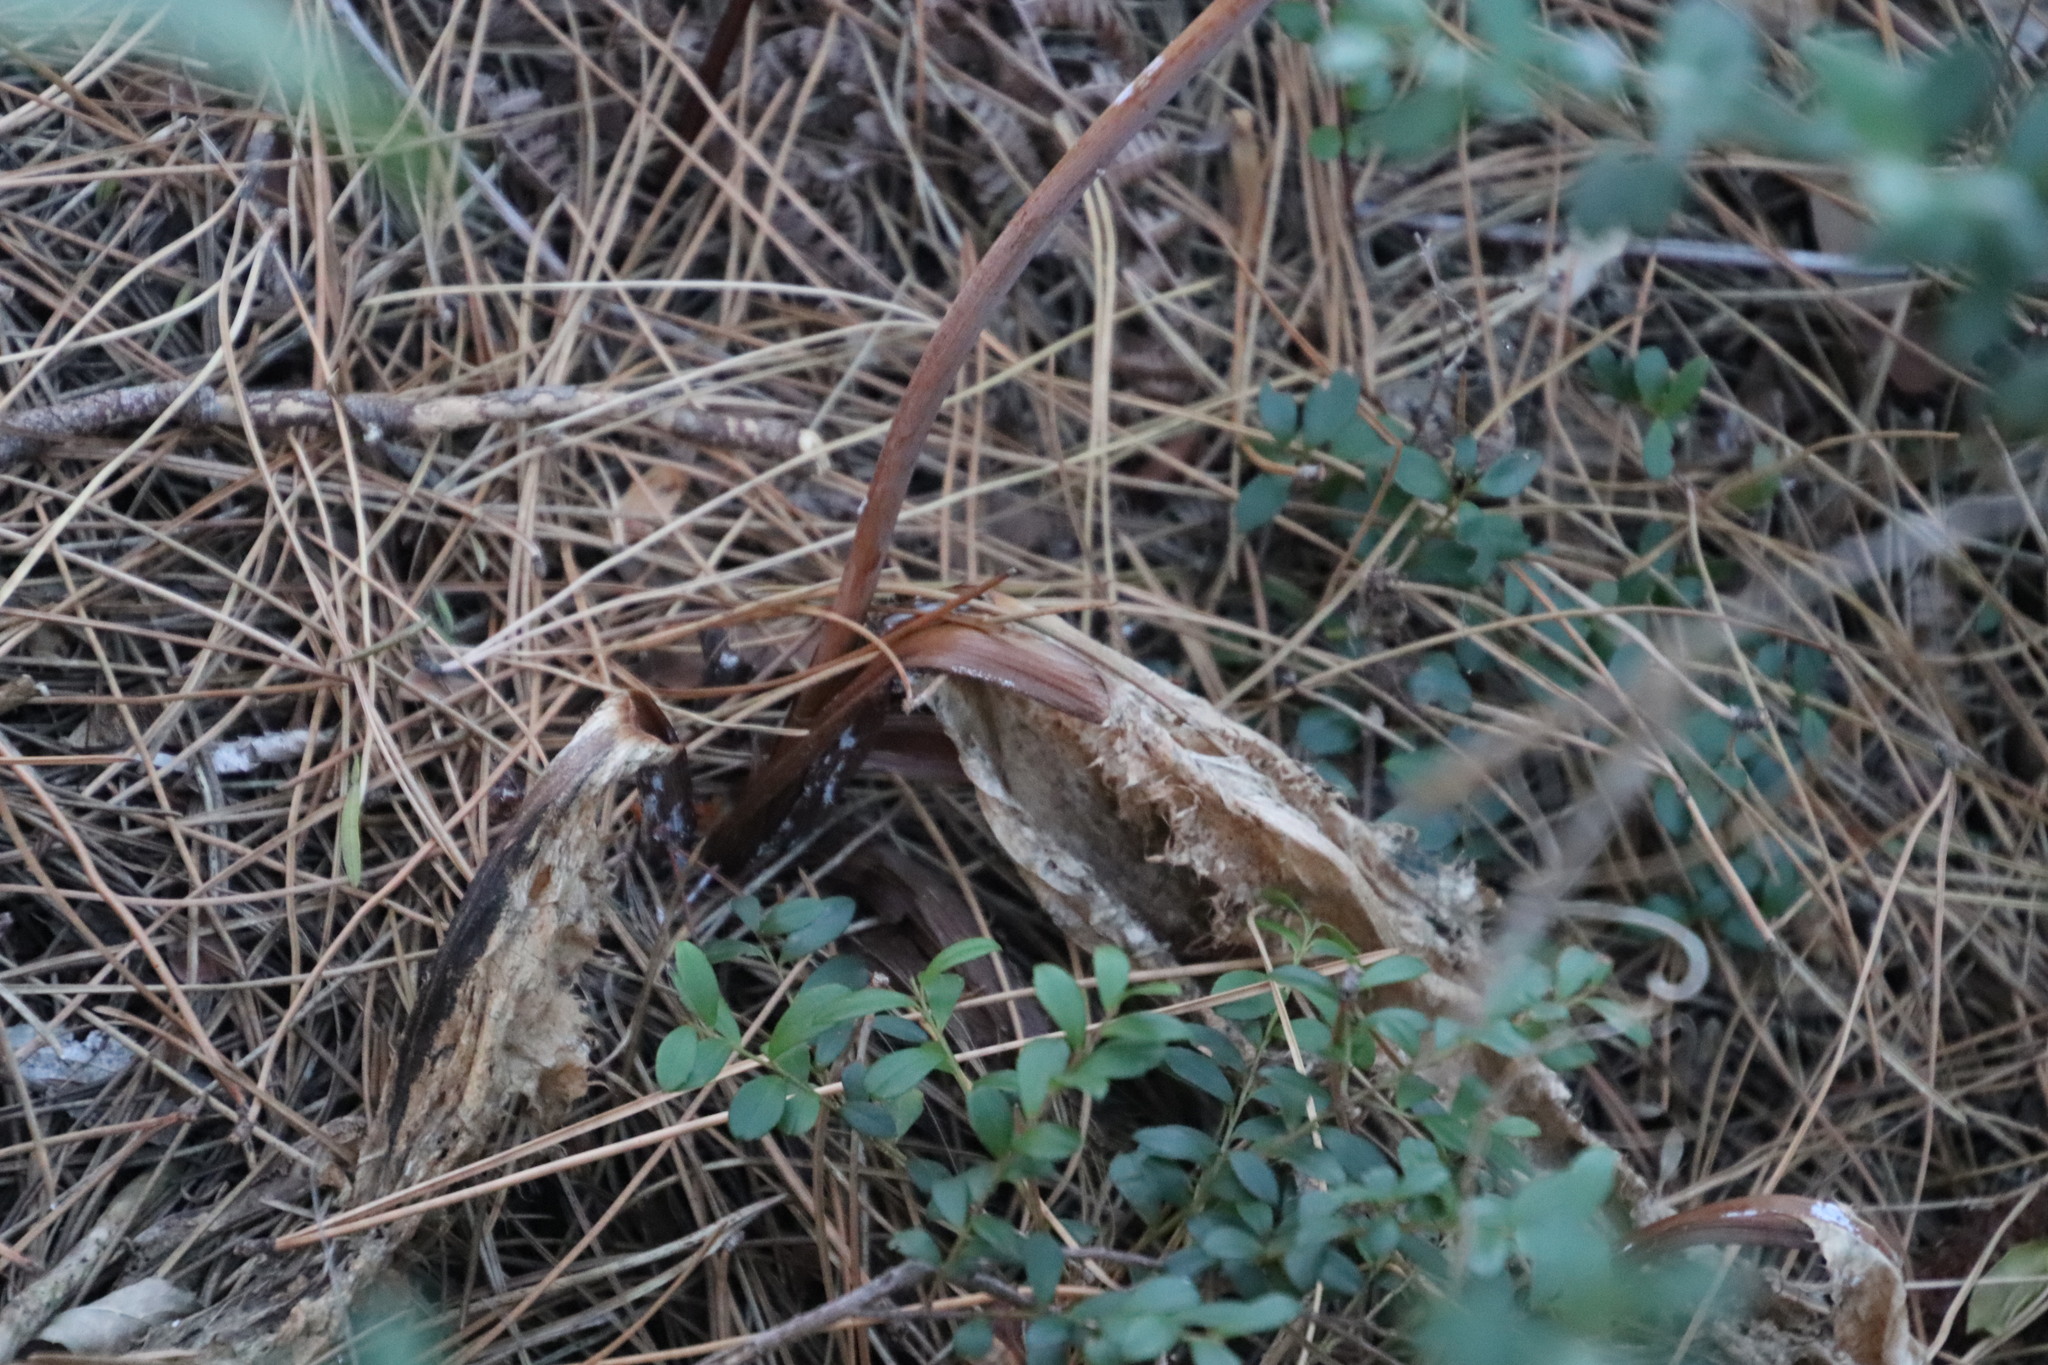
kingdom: Plantae
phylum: Tracheophyta
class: Magnoliopsida
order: Apiales
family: Apiaceae
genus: Lichtensteinia
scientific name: Lichtensteinia lacera
